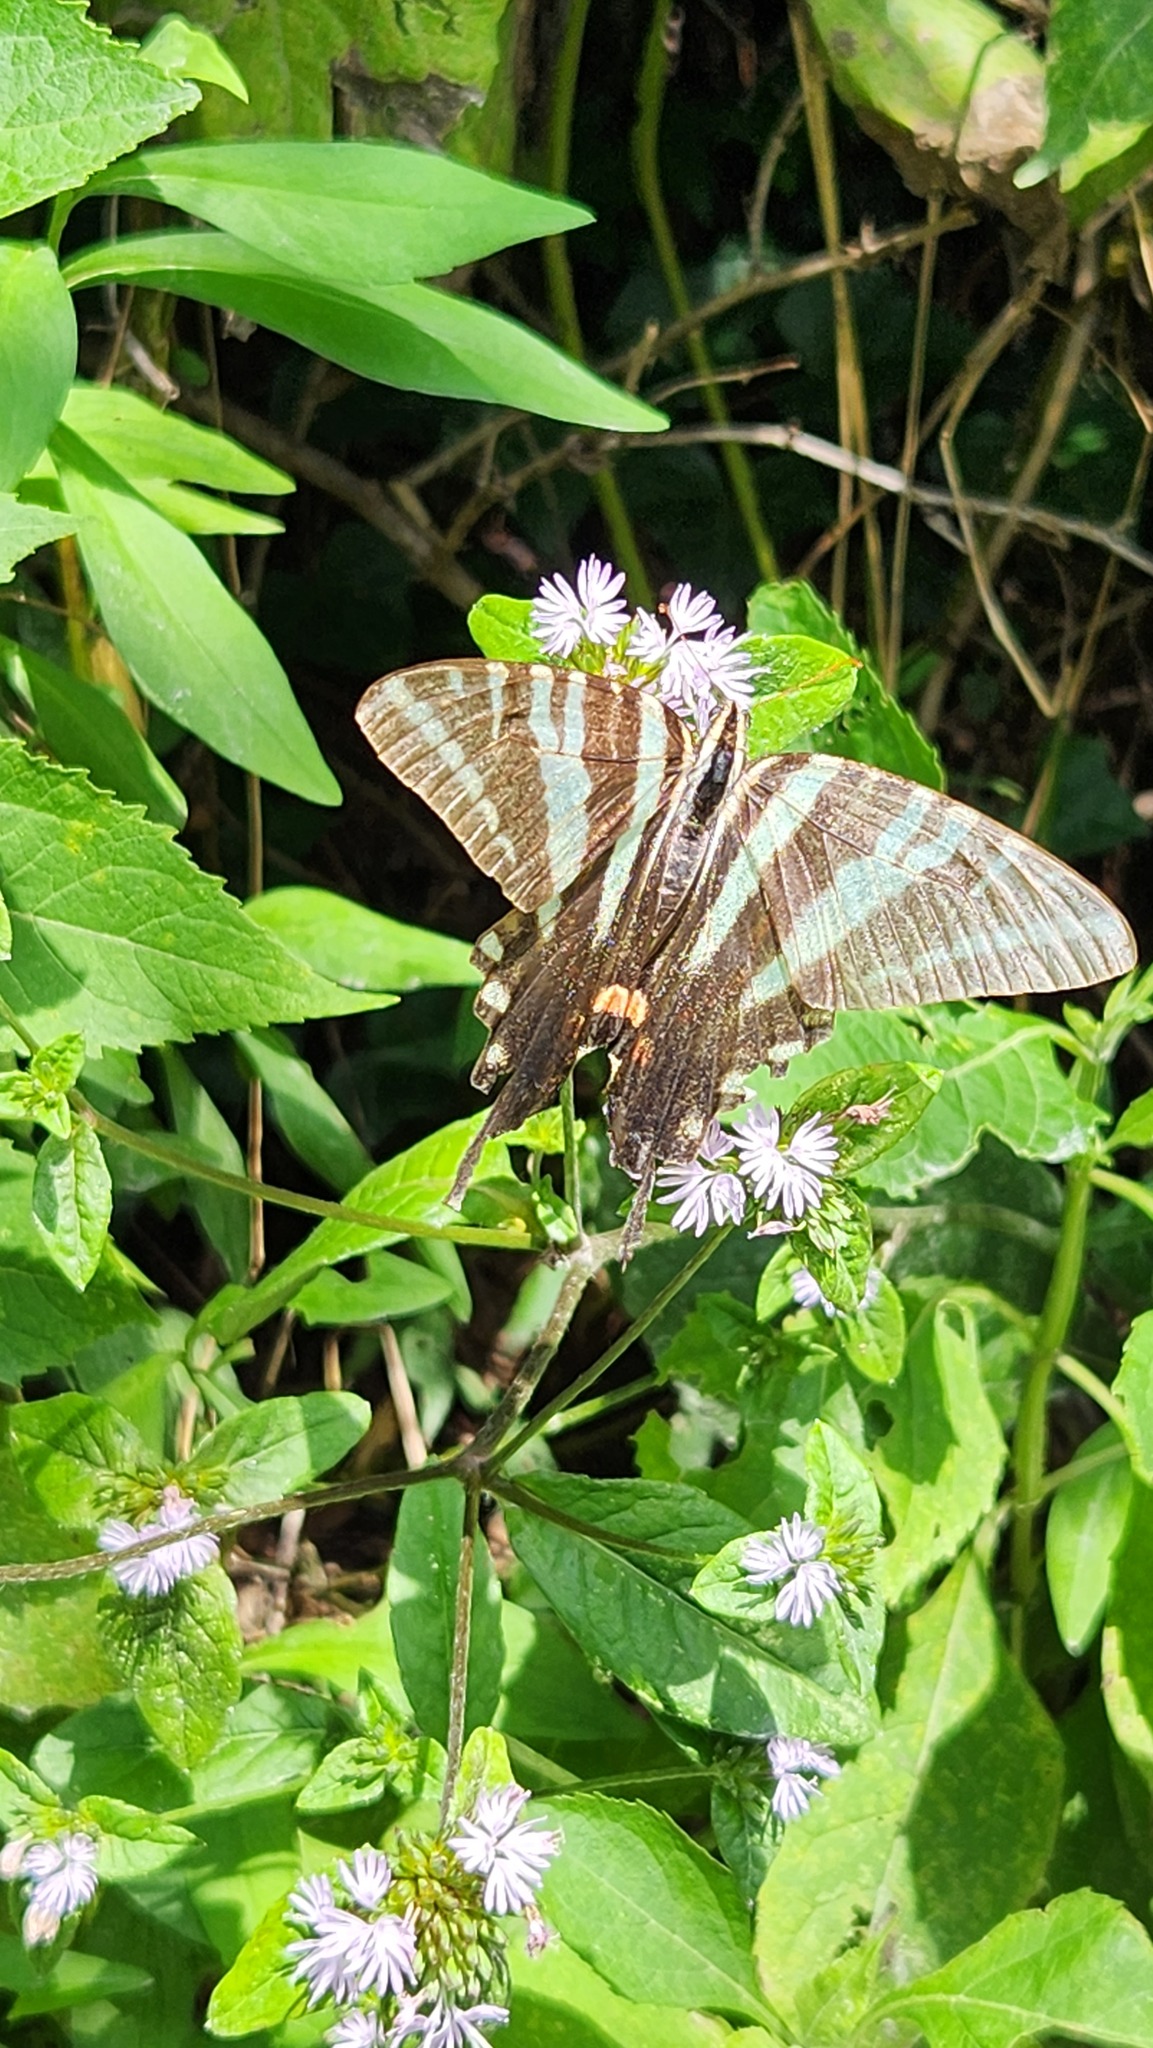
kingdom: Animalia
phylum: Arthropoda
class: Insecta
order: Lepidoptera
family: Papilionidae
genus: Protographium
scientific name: Protographium marcellus
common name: Zebra swallowtail
